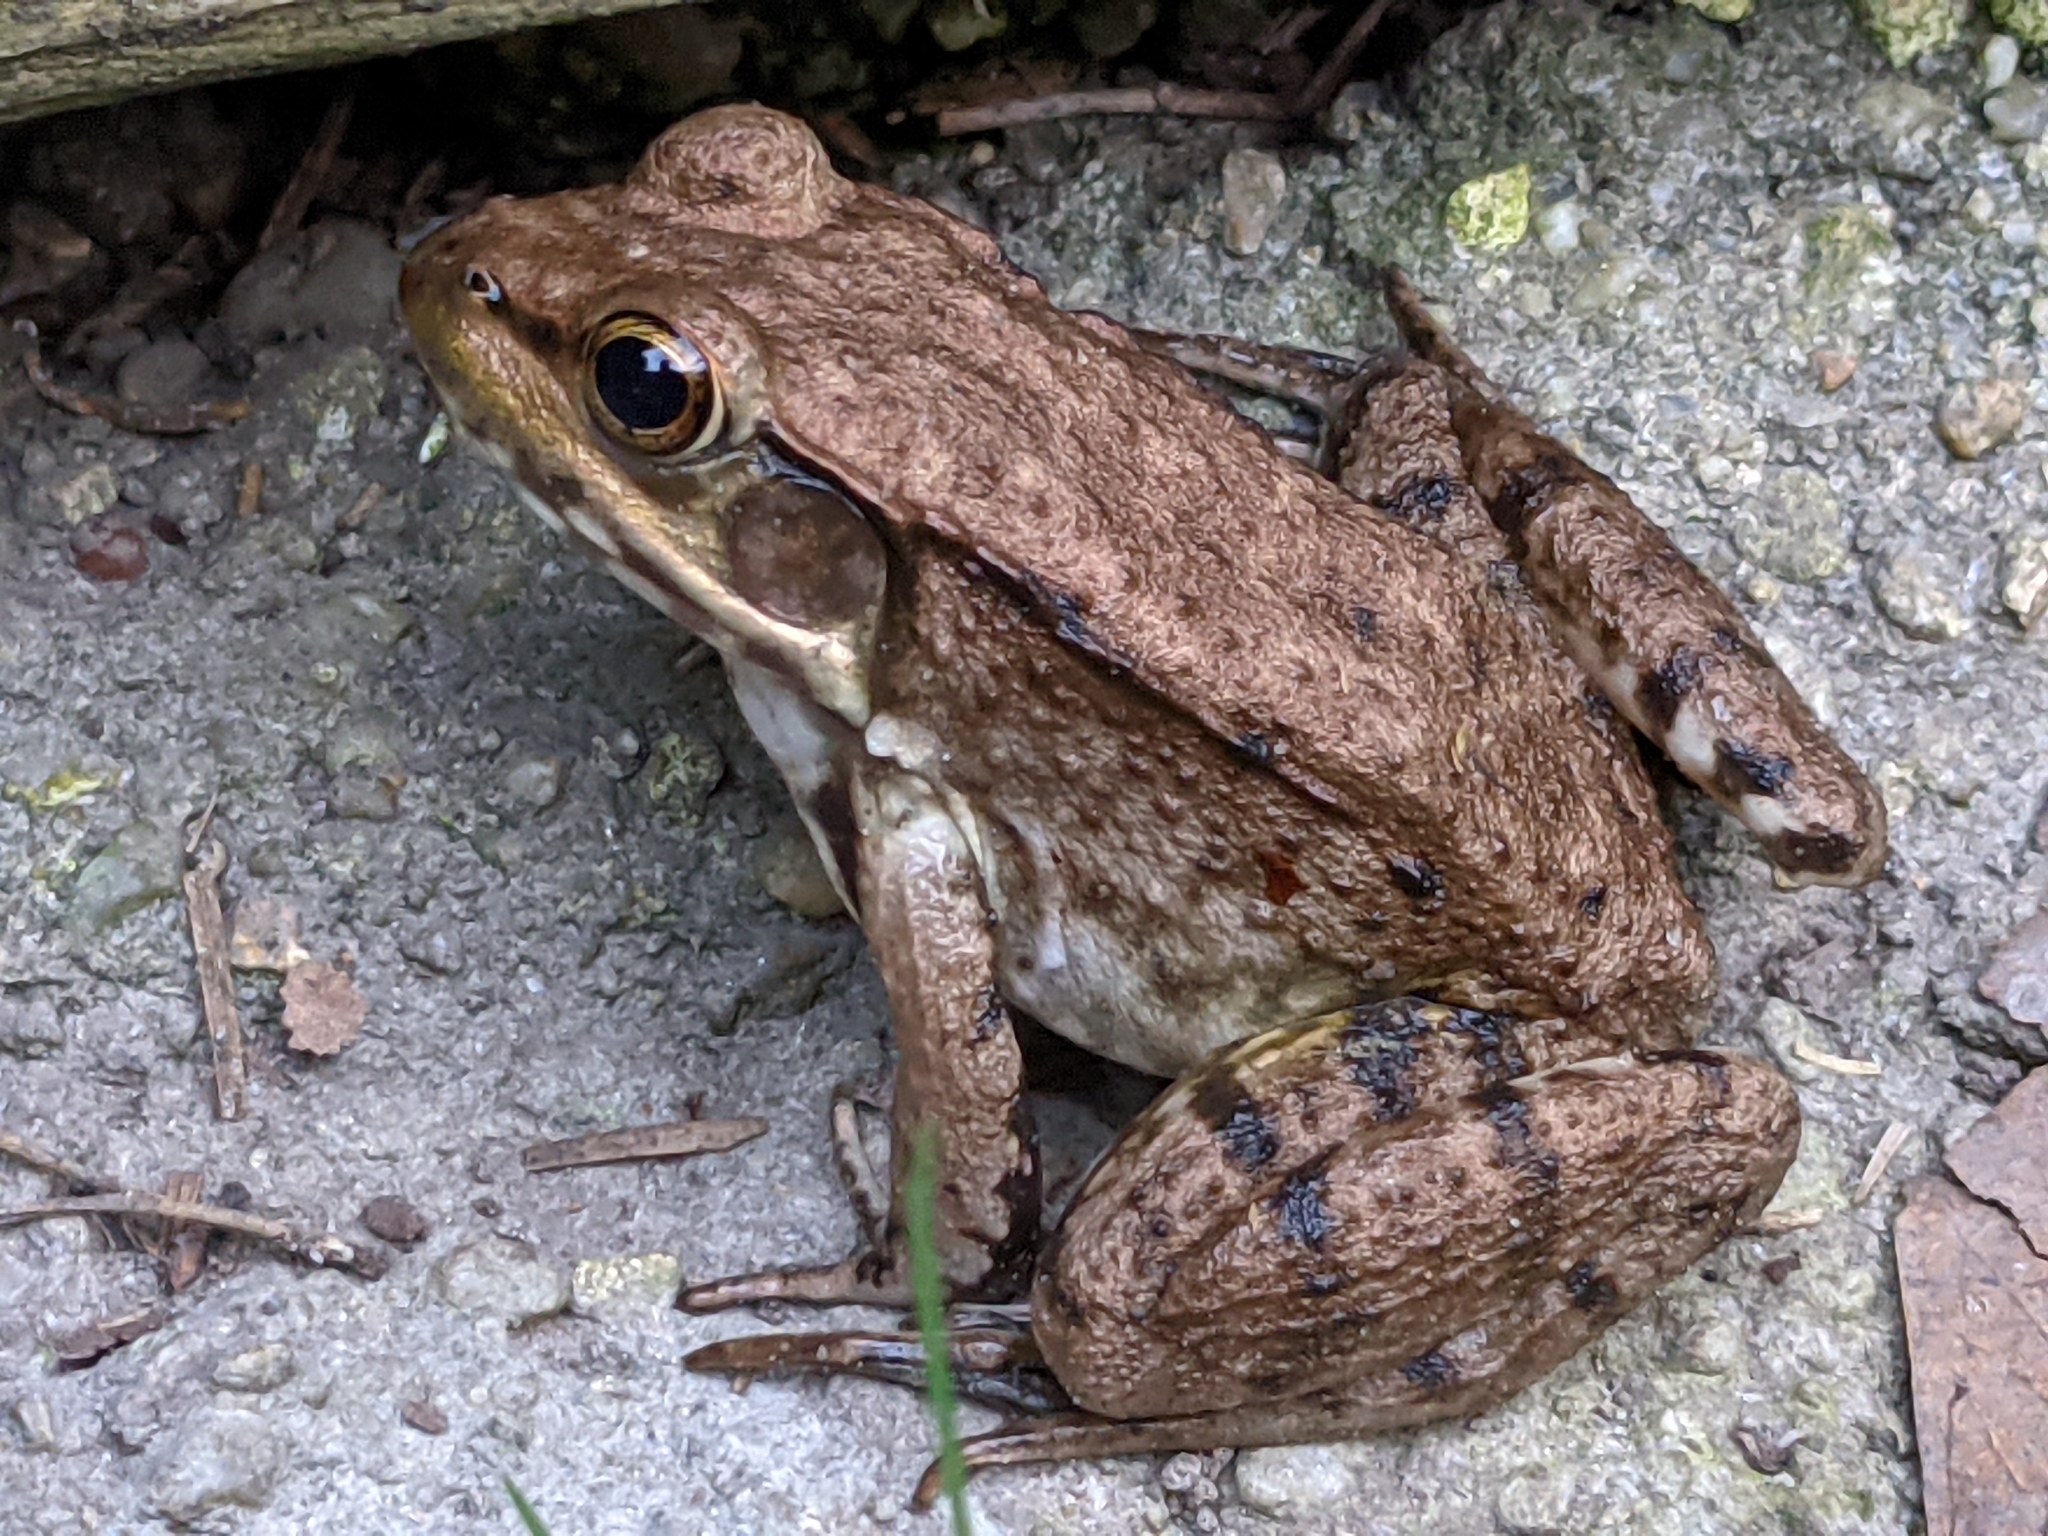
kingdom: Animalia
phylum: Chordata
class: Amphibia
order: Anura
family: Ranidae
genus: Lithobates
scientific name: Lithobates clamitans
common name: Green frog
